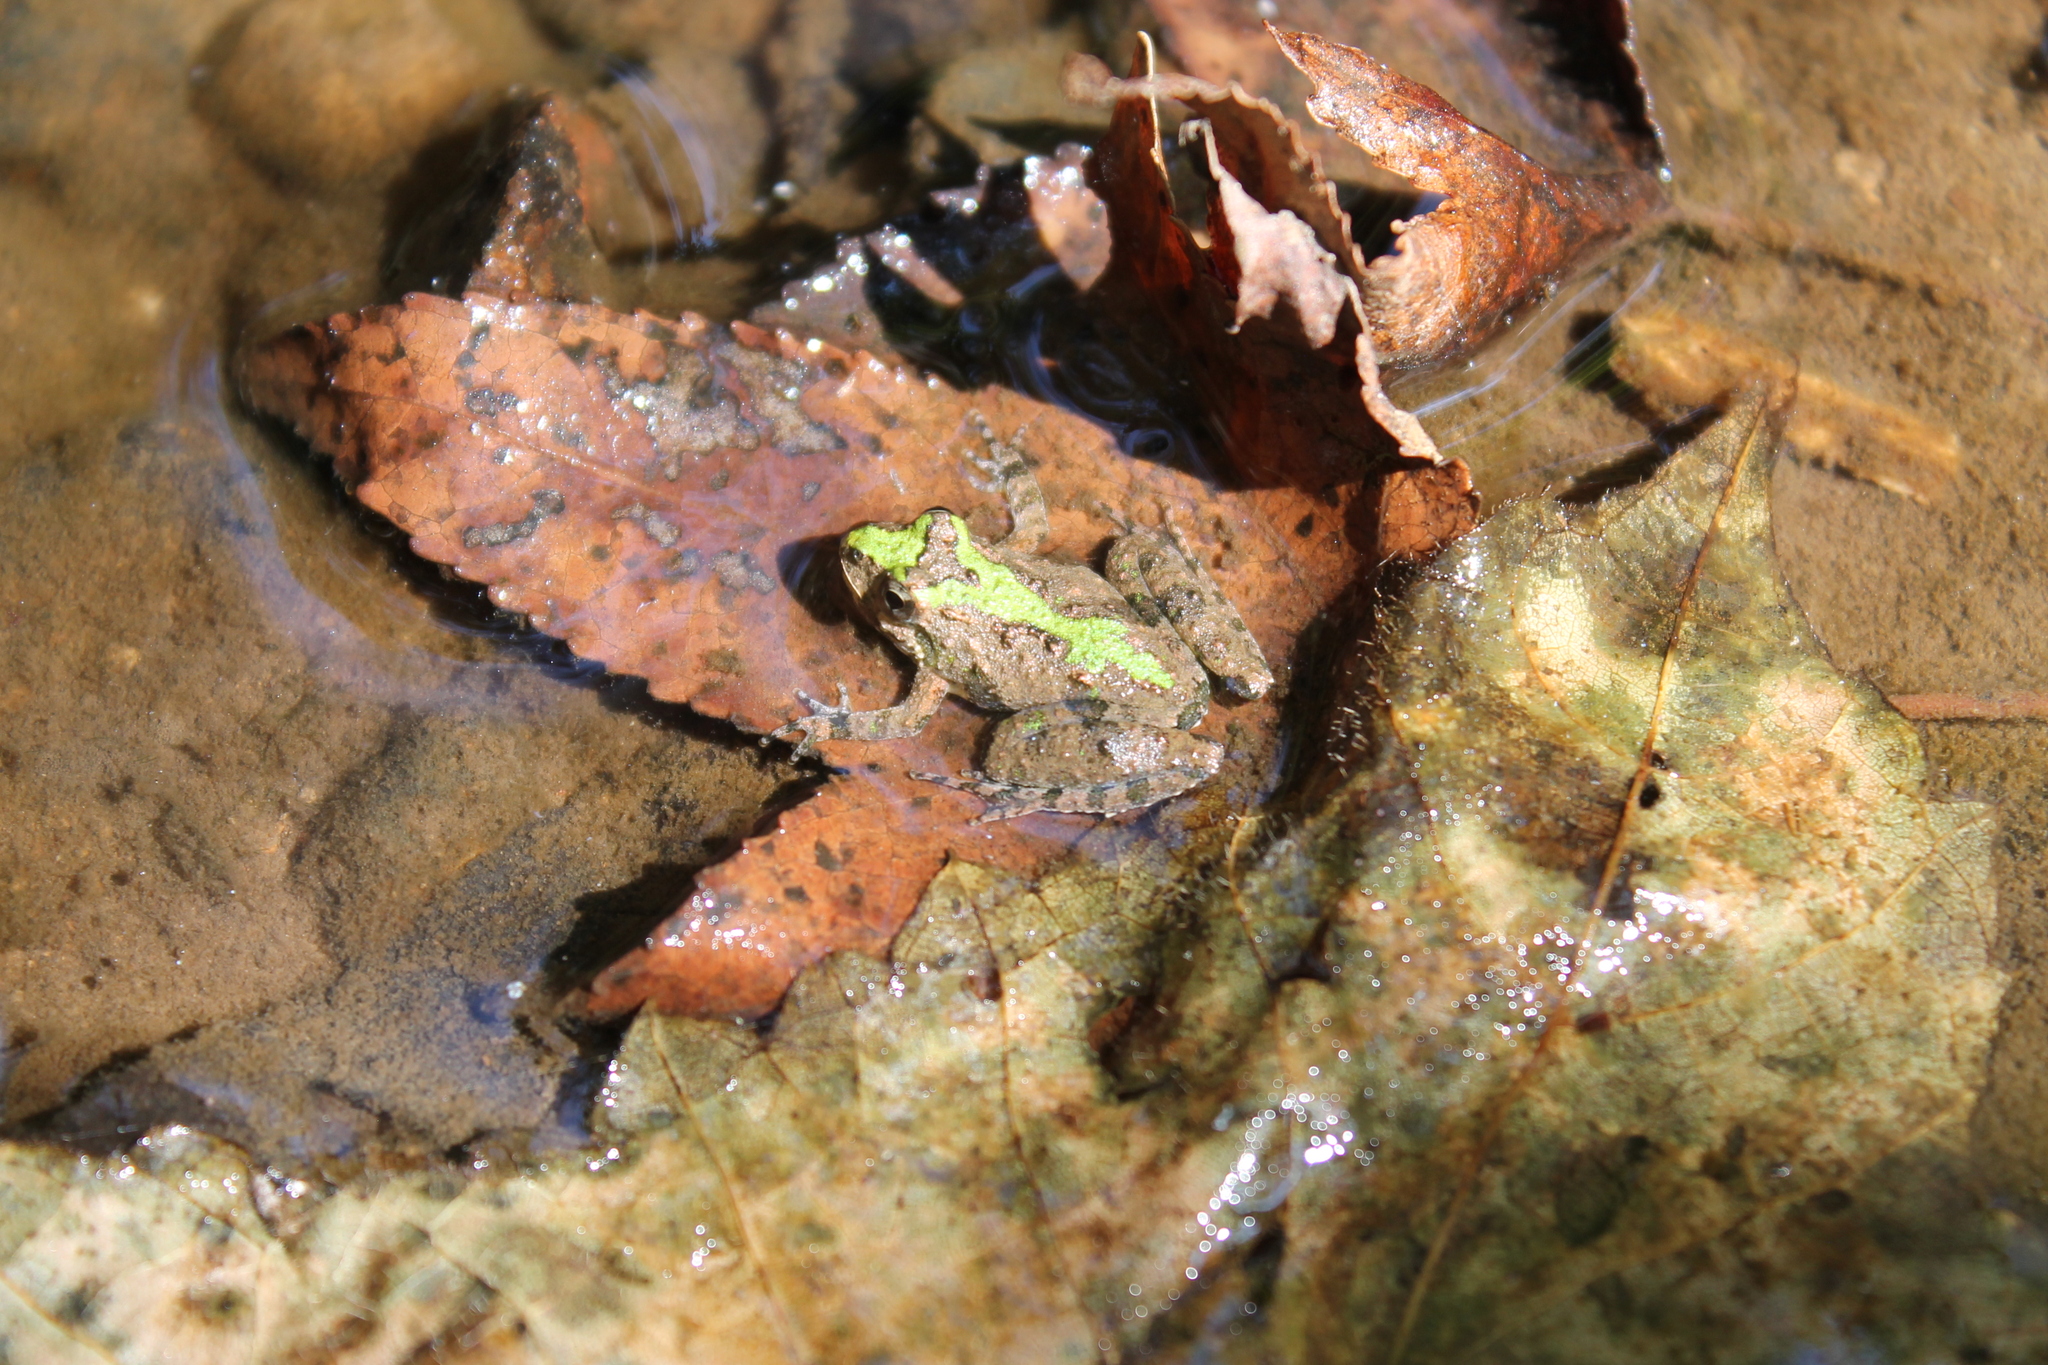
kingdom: Animalia
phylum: Chordata
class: Amphibia
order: Anura
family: Hylidae
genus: Acris
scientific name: Acris crepitans
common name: Northern cricket frog
